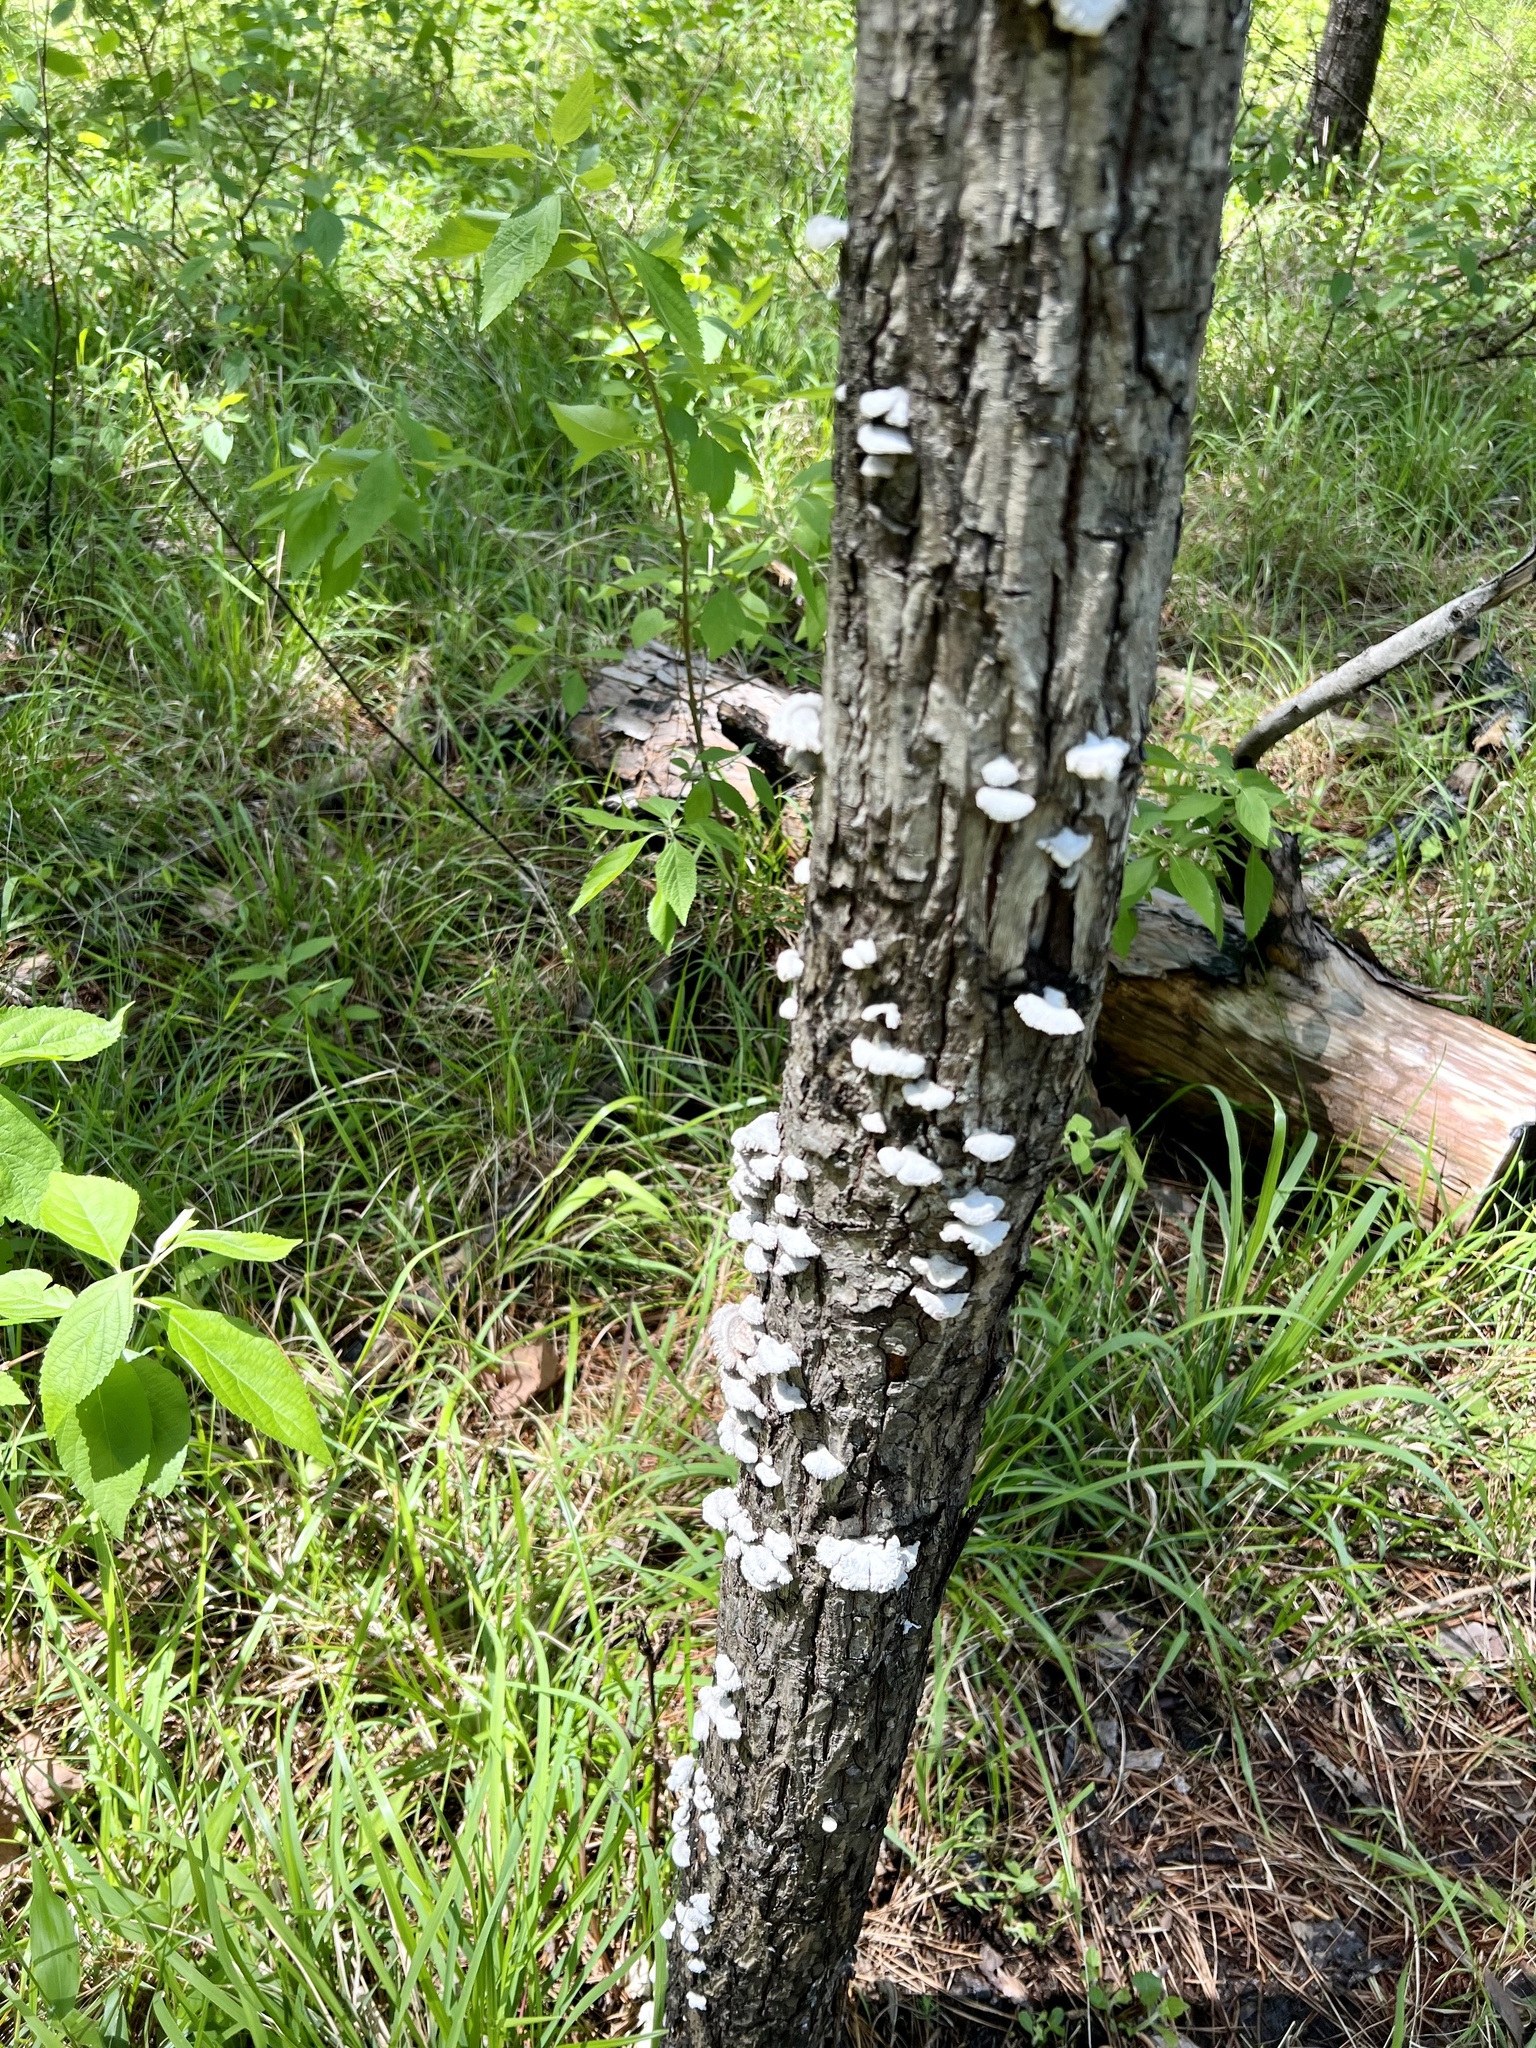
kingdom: Fungi
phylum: Basidiomycota
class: Agaricomycetes
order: Agaricales
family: Schizophyllaceae
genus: Schizophyllum
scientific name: Schizophyllum commune
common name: Common porecrust
